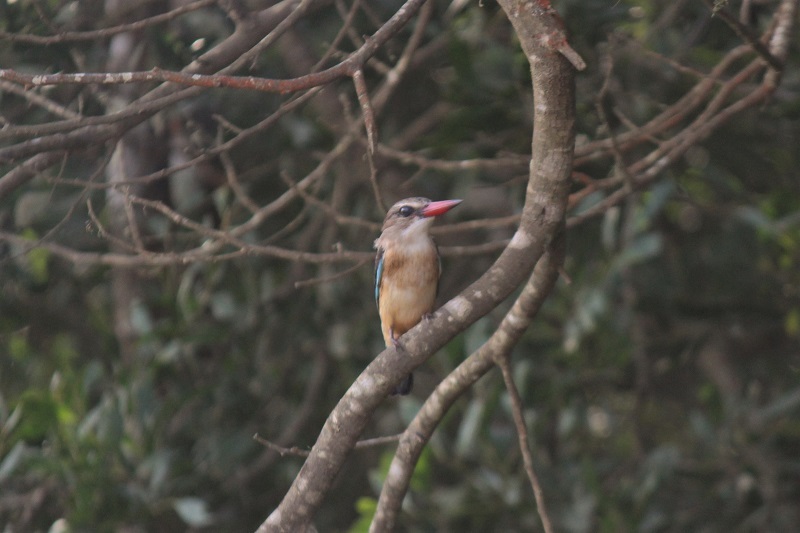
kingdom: Animalia
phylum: Chordata
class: Aves
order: Coraciiformes
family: Alcedinidae
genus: Halcyon
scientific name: Halcyon albiventris
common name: Brown-hooded kingfisher
